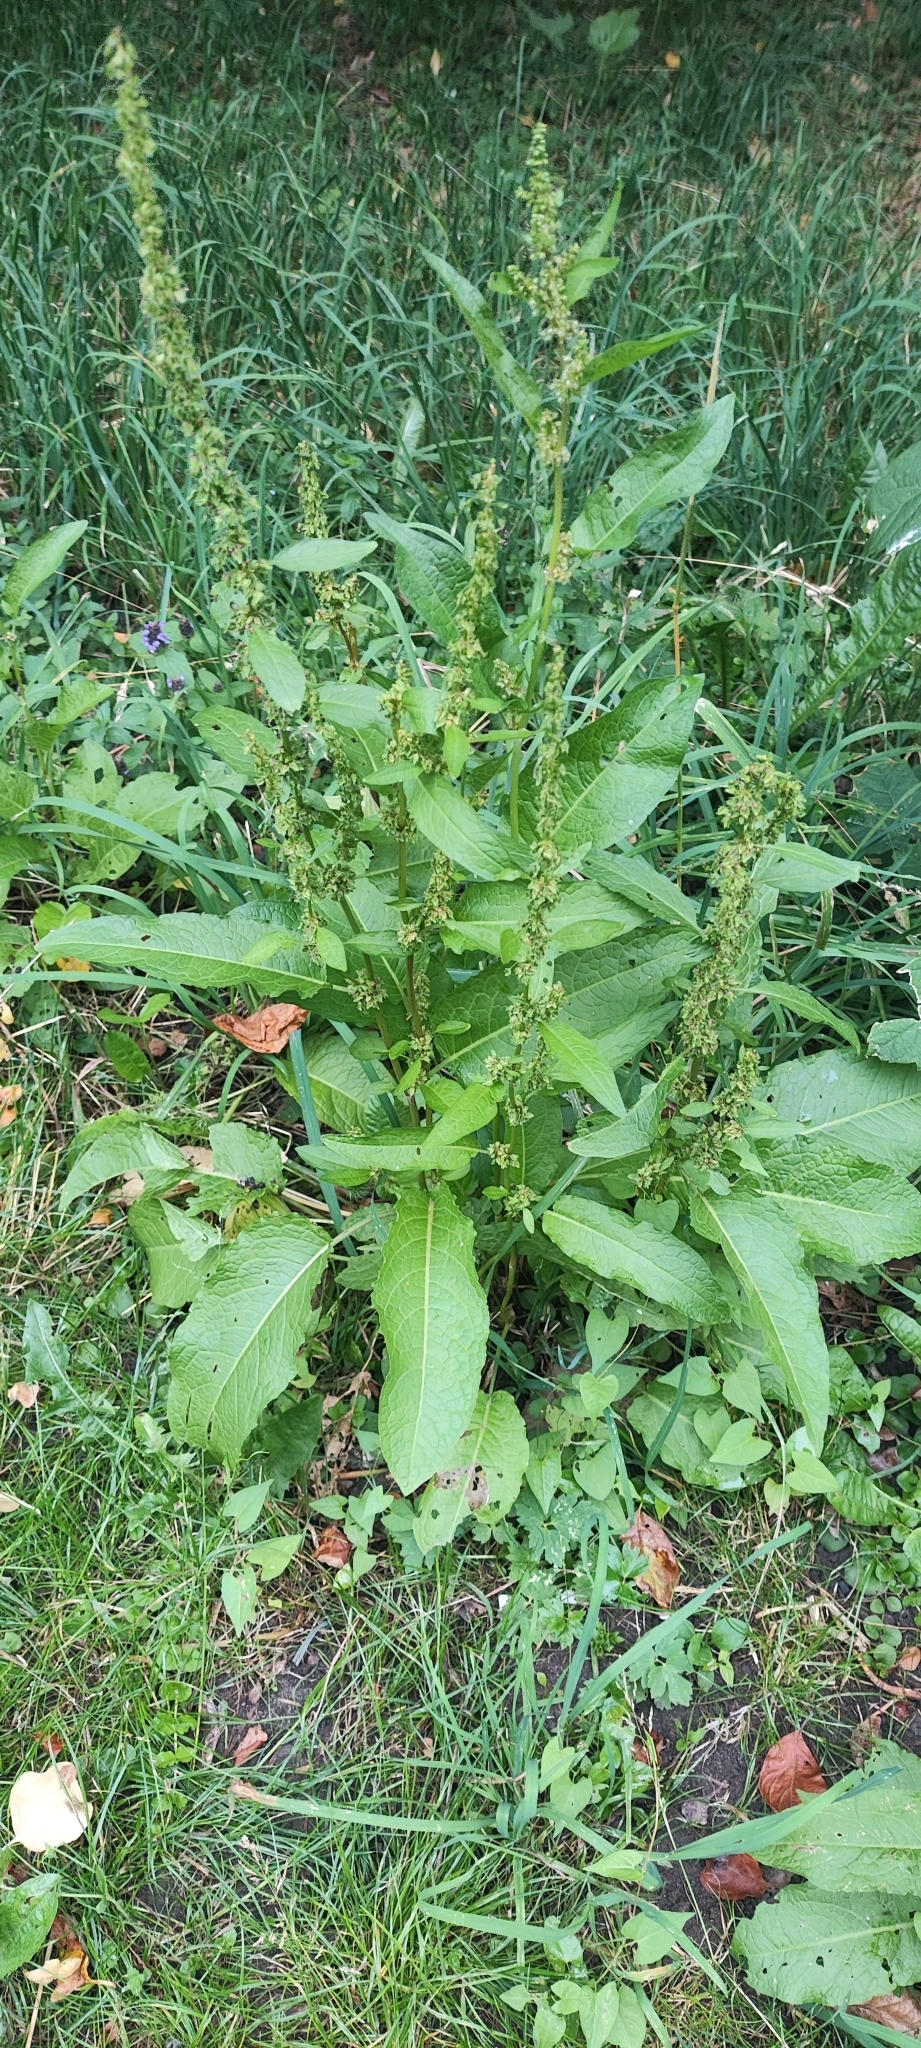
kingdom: Plantae
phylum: Tracheophyta
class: Magnoliopsida
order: Caryophyllales
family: Polygonaceae
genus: Rumex
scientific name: Rumex obtusifolius
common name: Bitter dock
